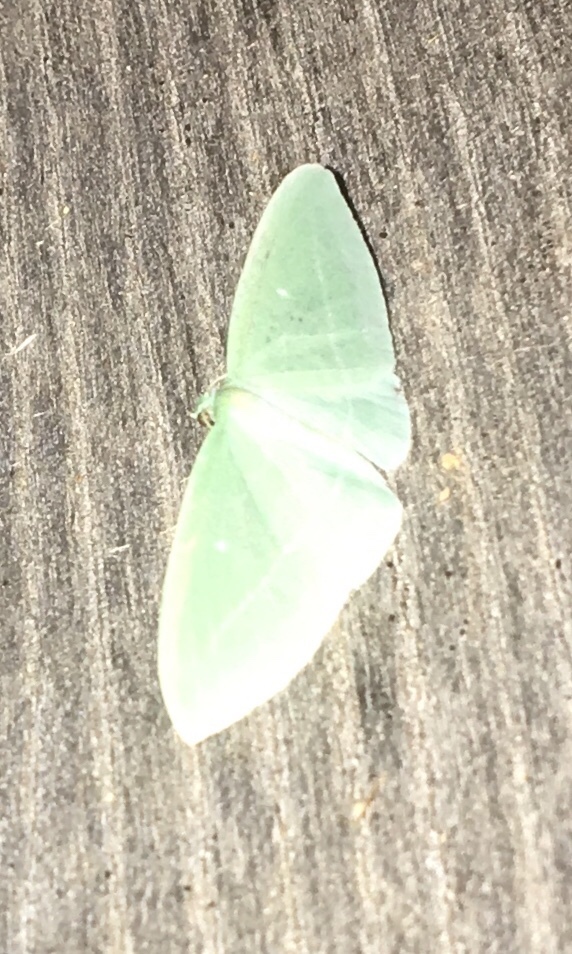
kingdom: Animalia
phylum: Arthropoda
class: Insecta
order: Lepidoptera
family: Geometridae
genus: Dyspteris
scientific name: Dyspteris abortivaria
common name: Bad-wing
